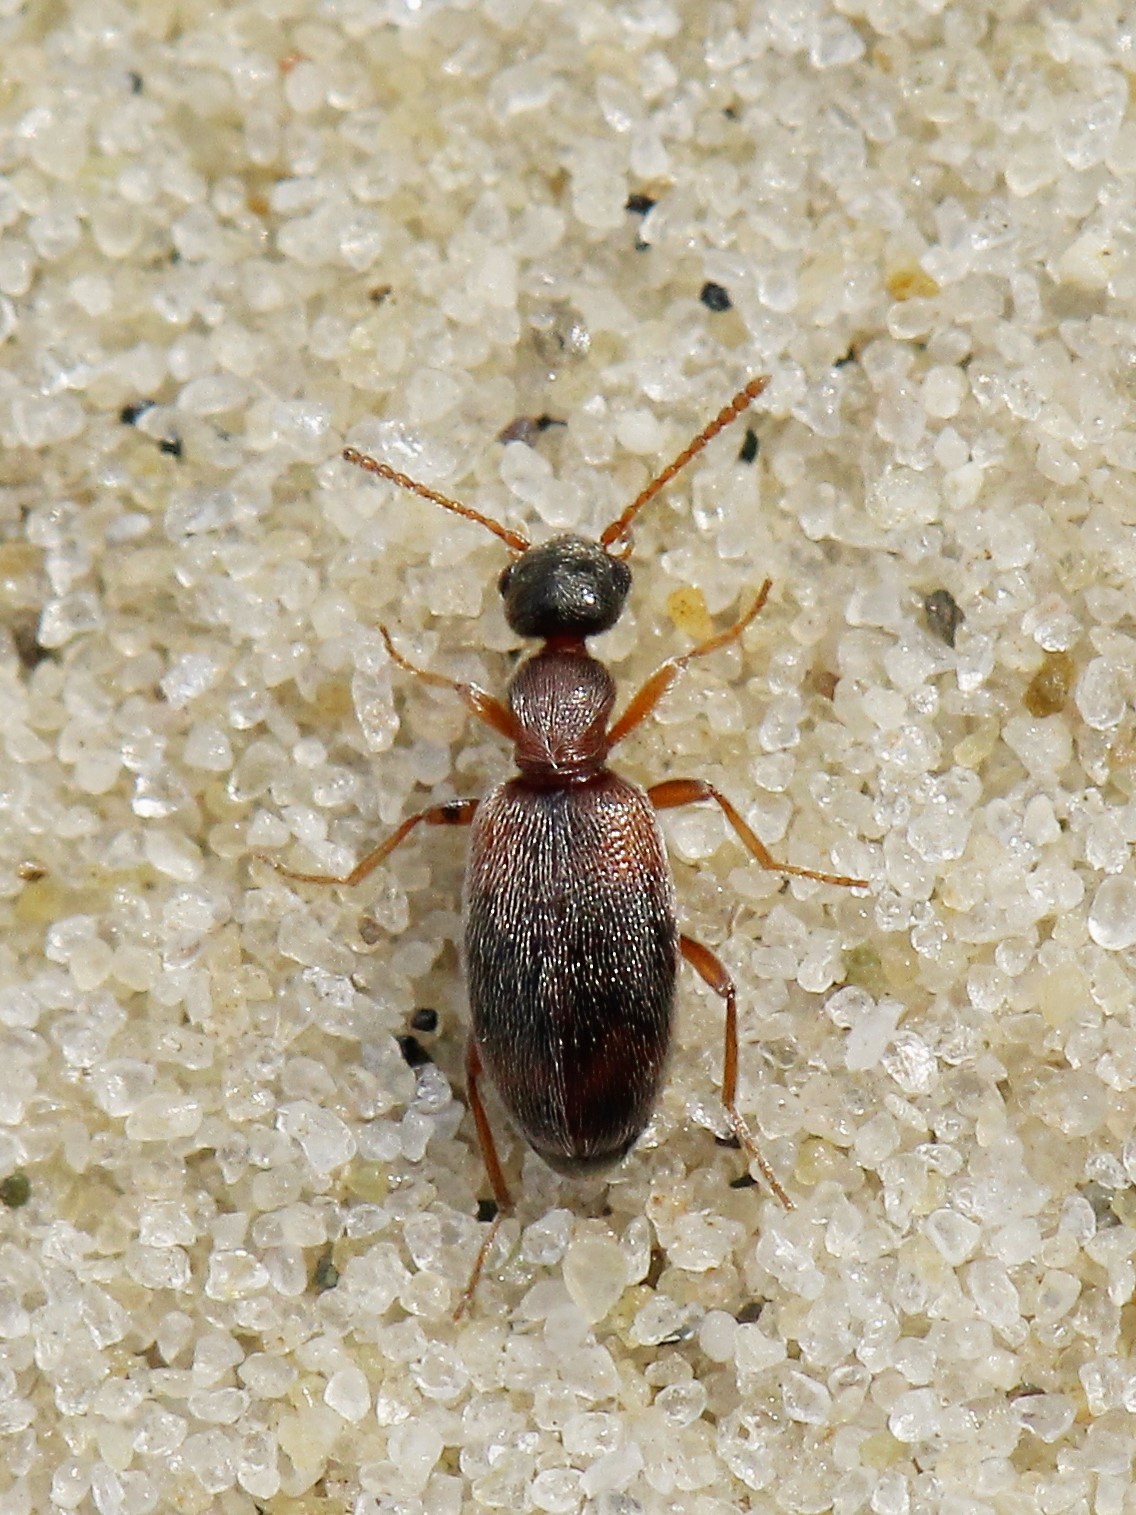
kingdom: Animalia
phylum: Arthropoda
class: Insecta
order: Coleoptera
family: Anthicidae
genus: Anthicus
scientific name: Anthicus axillaris
